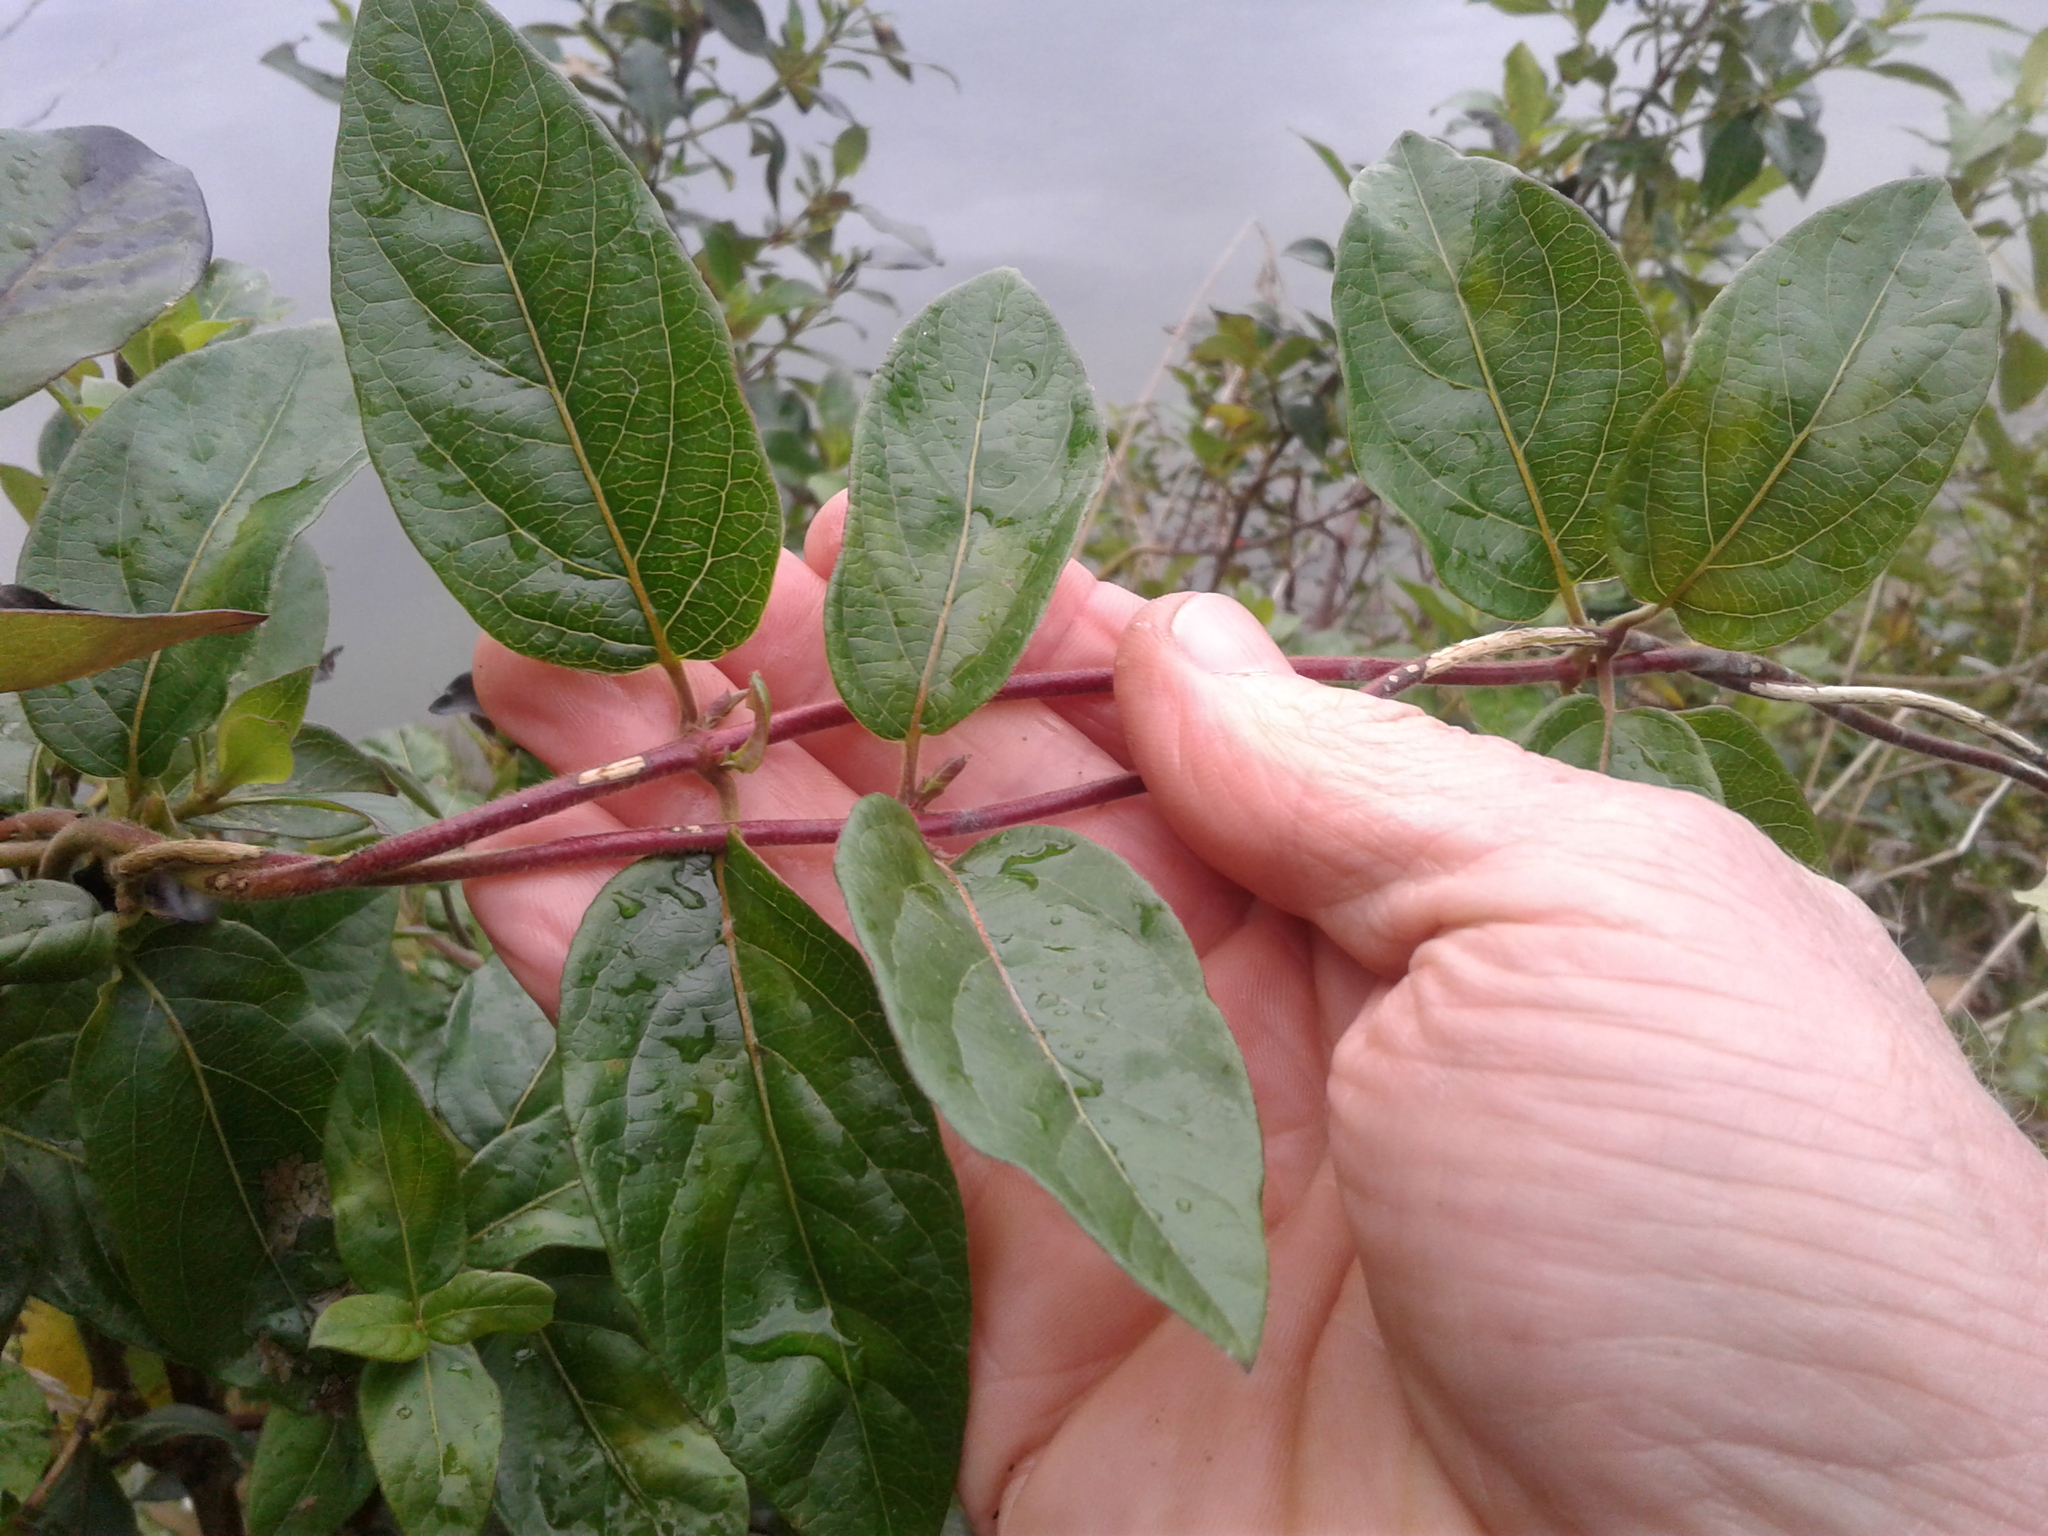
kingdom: Plantae
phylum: Tracheophyta
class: Magnoliopsida
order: Dipsacales
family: Caprifoliaceae
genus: Lonicera
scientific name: Lonicera japonica
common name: Japanese honeysuckle
